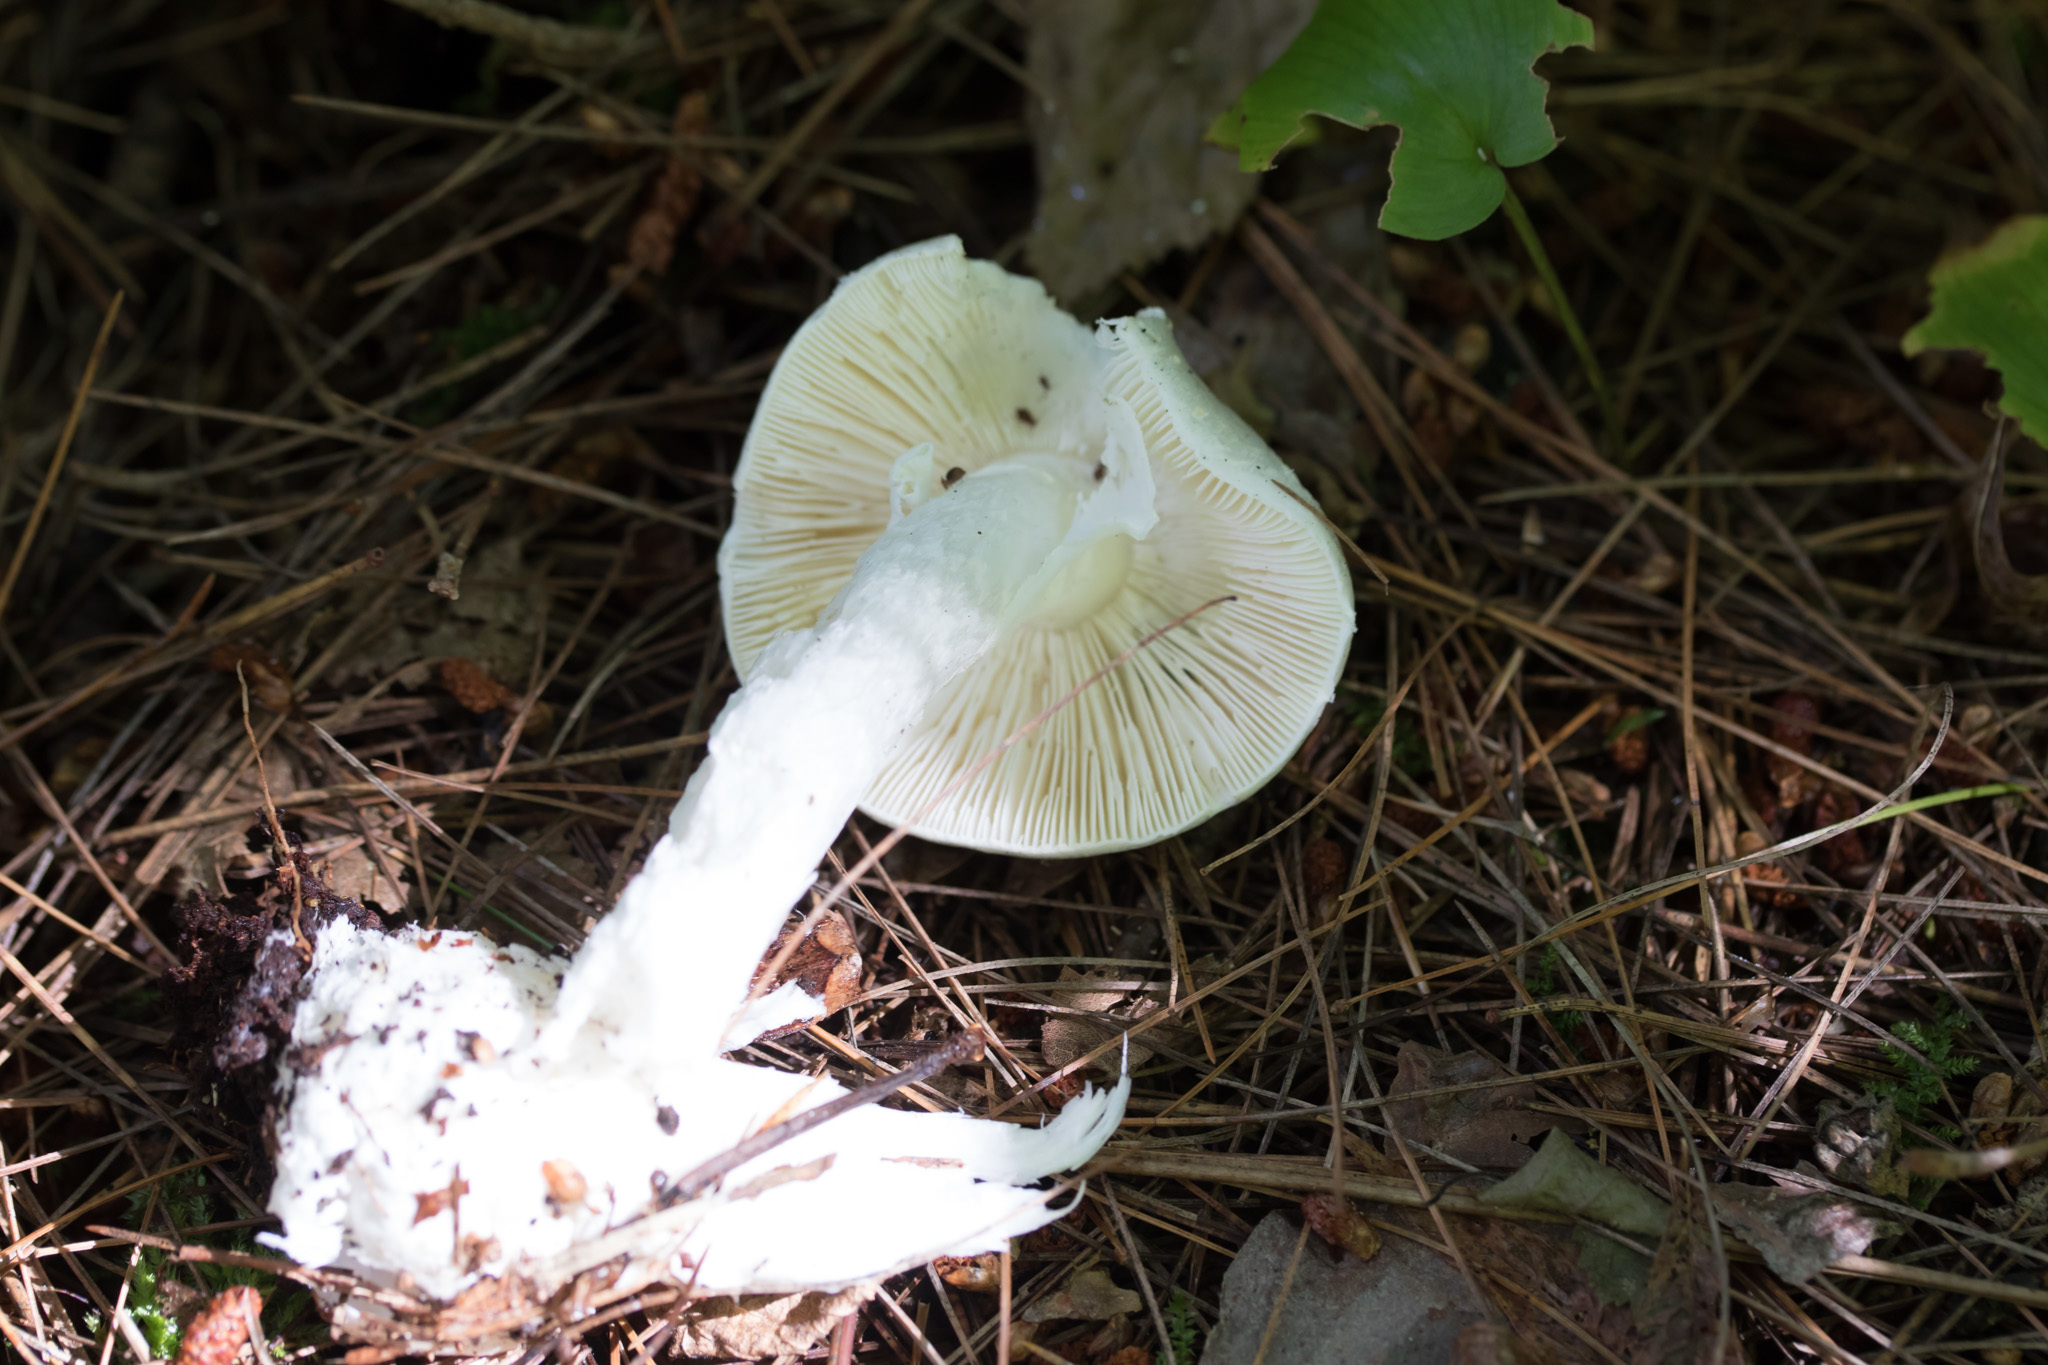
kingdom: Fungi
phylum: Basidiomycota
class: Agaricomycetes
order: Agaricales
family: Amanitaceae
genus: Amanita
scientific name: Amanita bisporigera
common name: Eastern north american destroying angel
